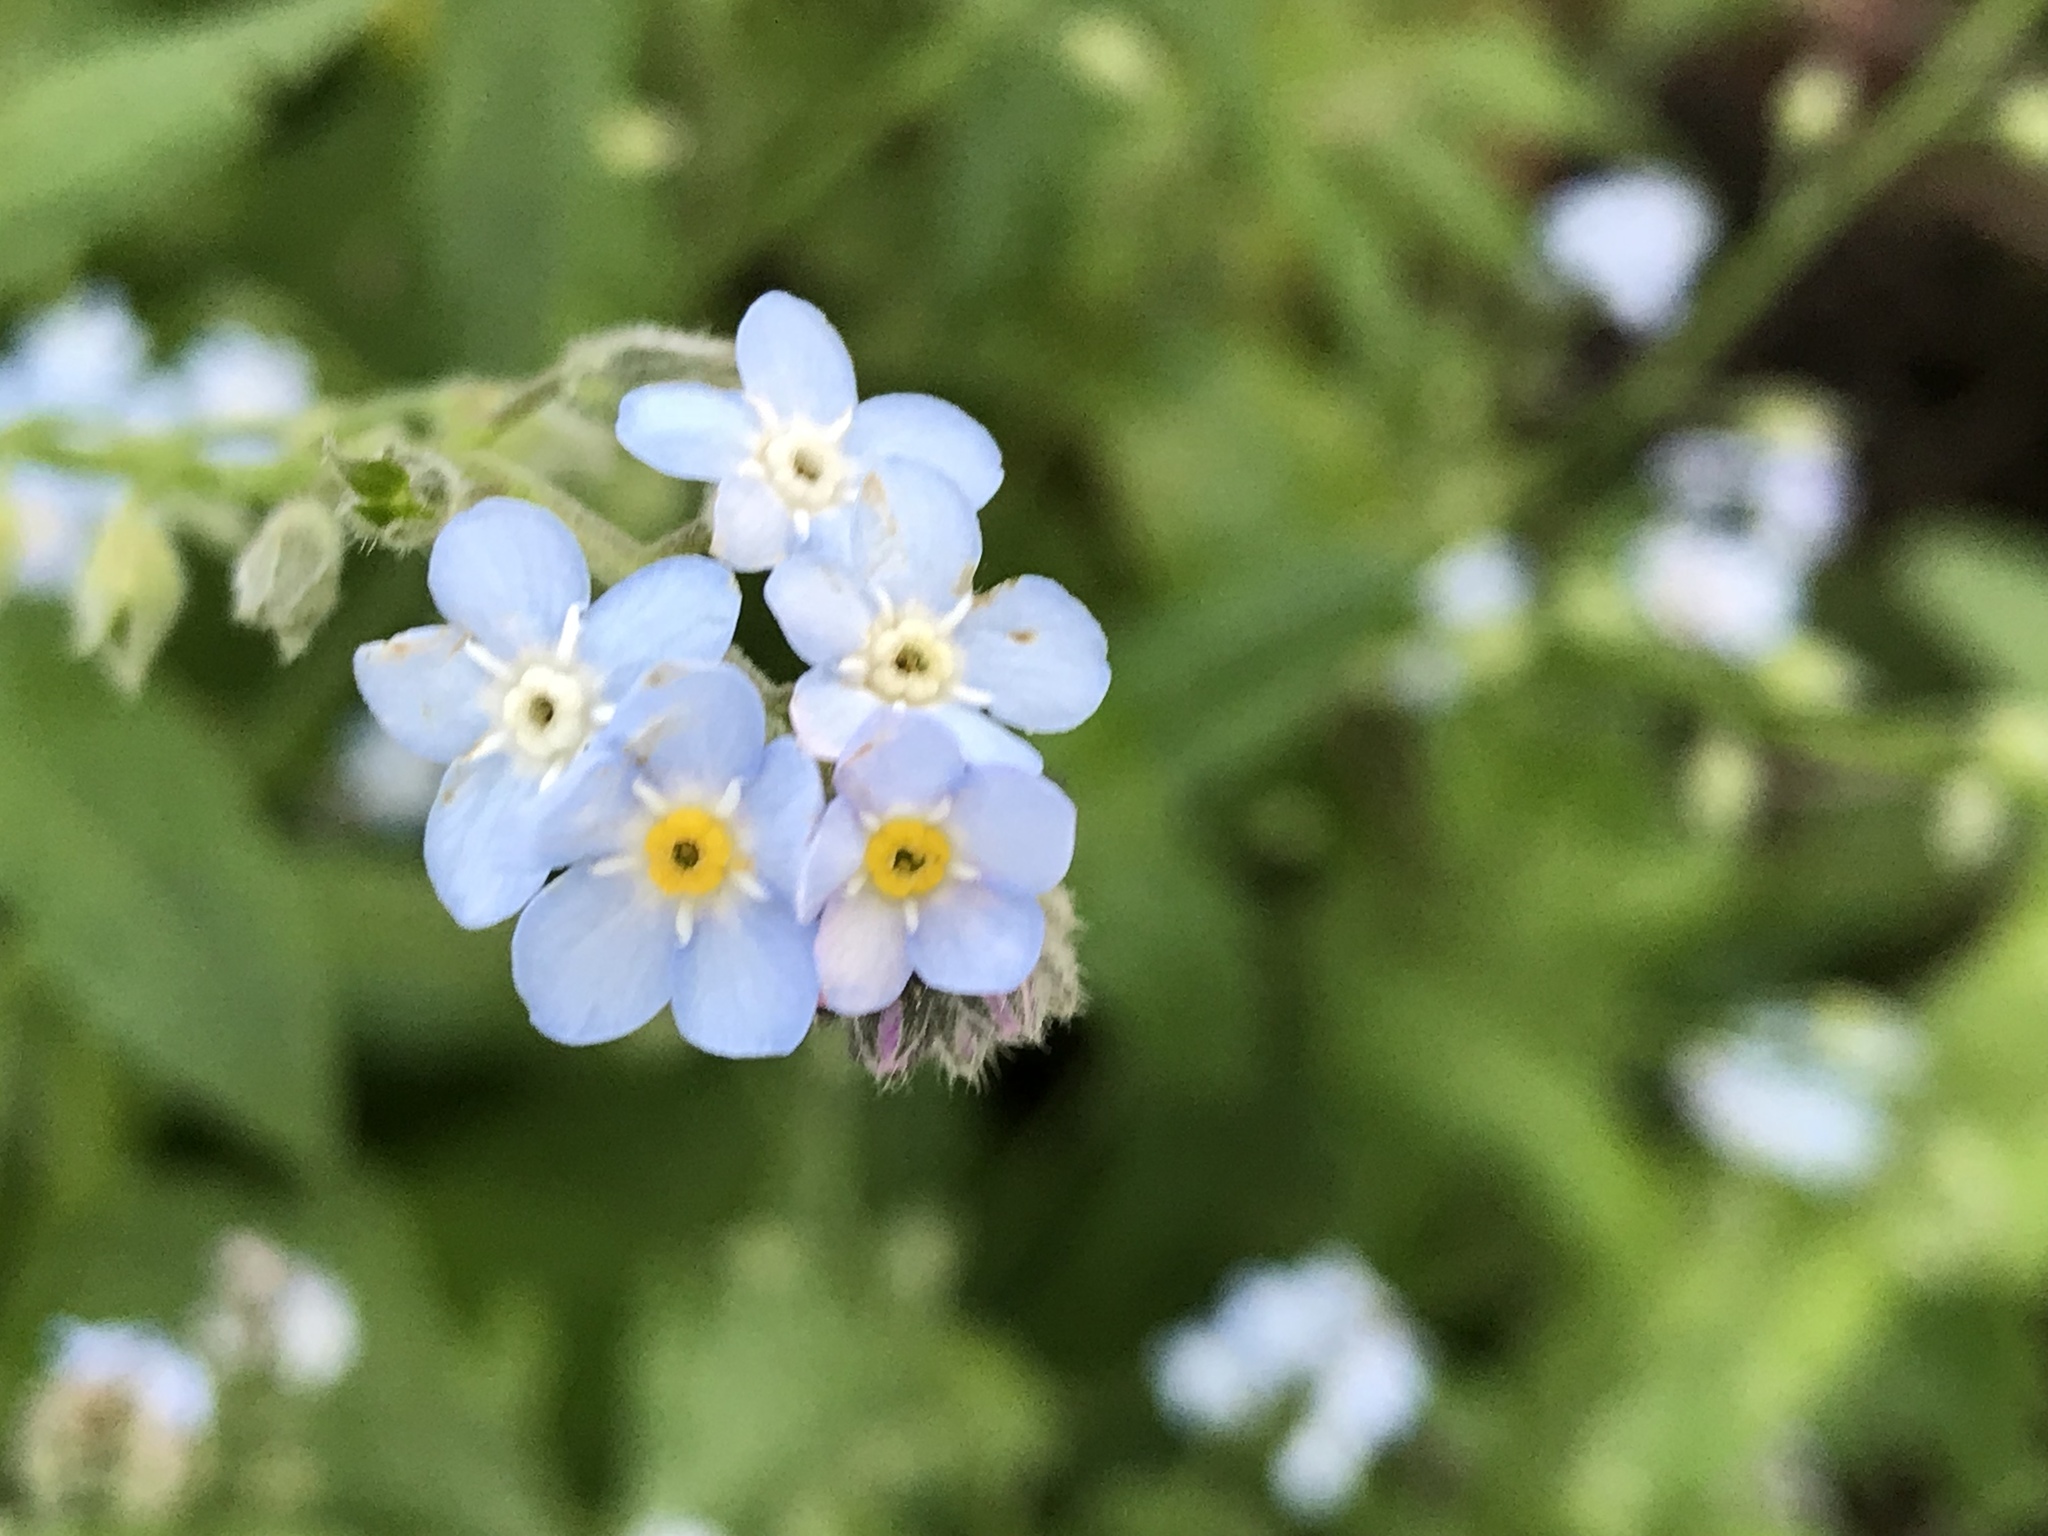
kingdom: Plantae
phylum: Tracheophyta
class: Magnoliopsida
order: Boraginales
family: Boraginaceae
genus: Myosotis
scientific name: Myosotis latifolia
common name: Broadleaf forget-me-not
